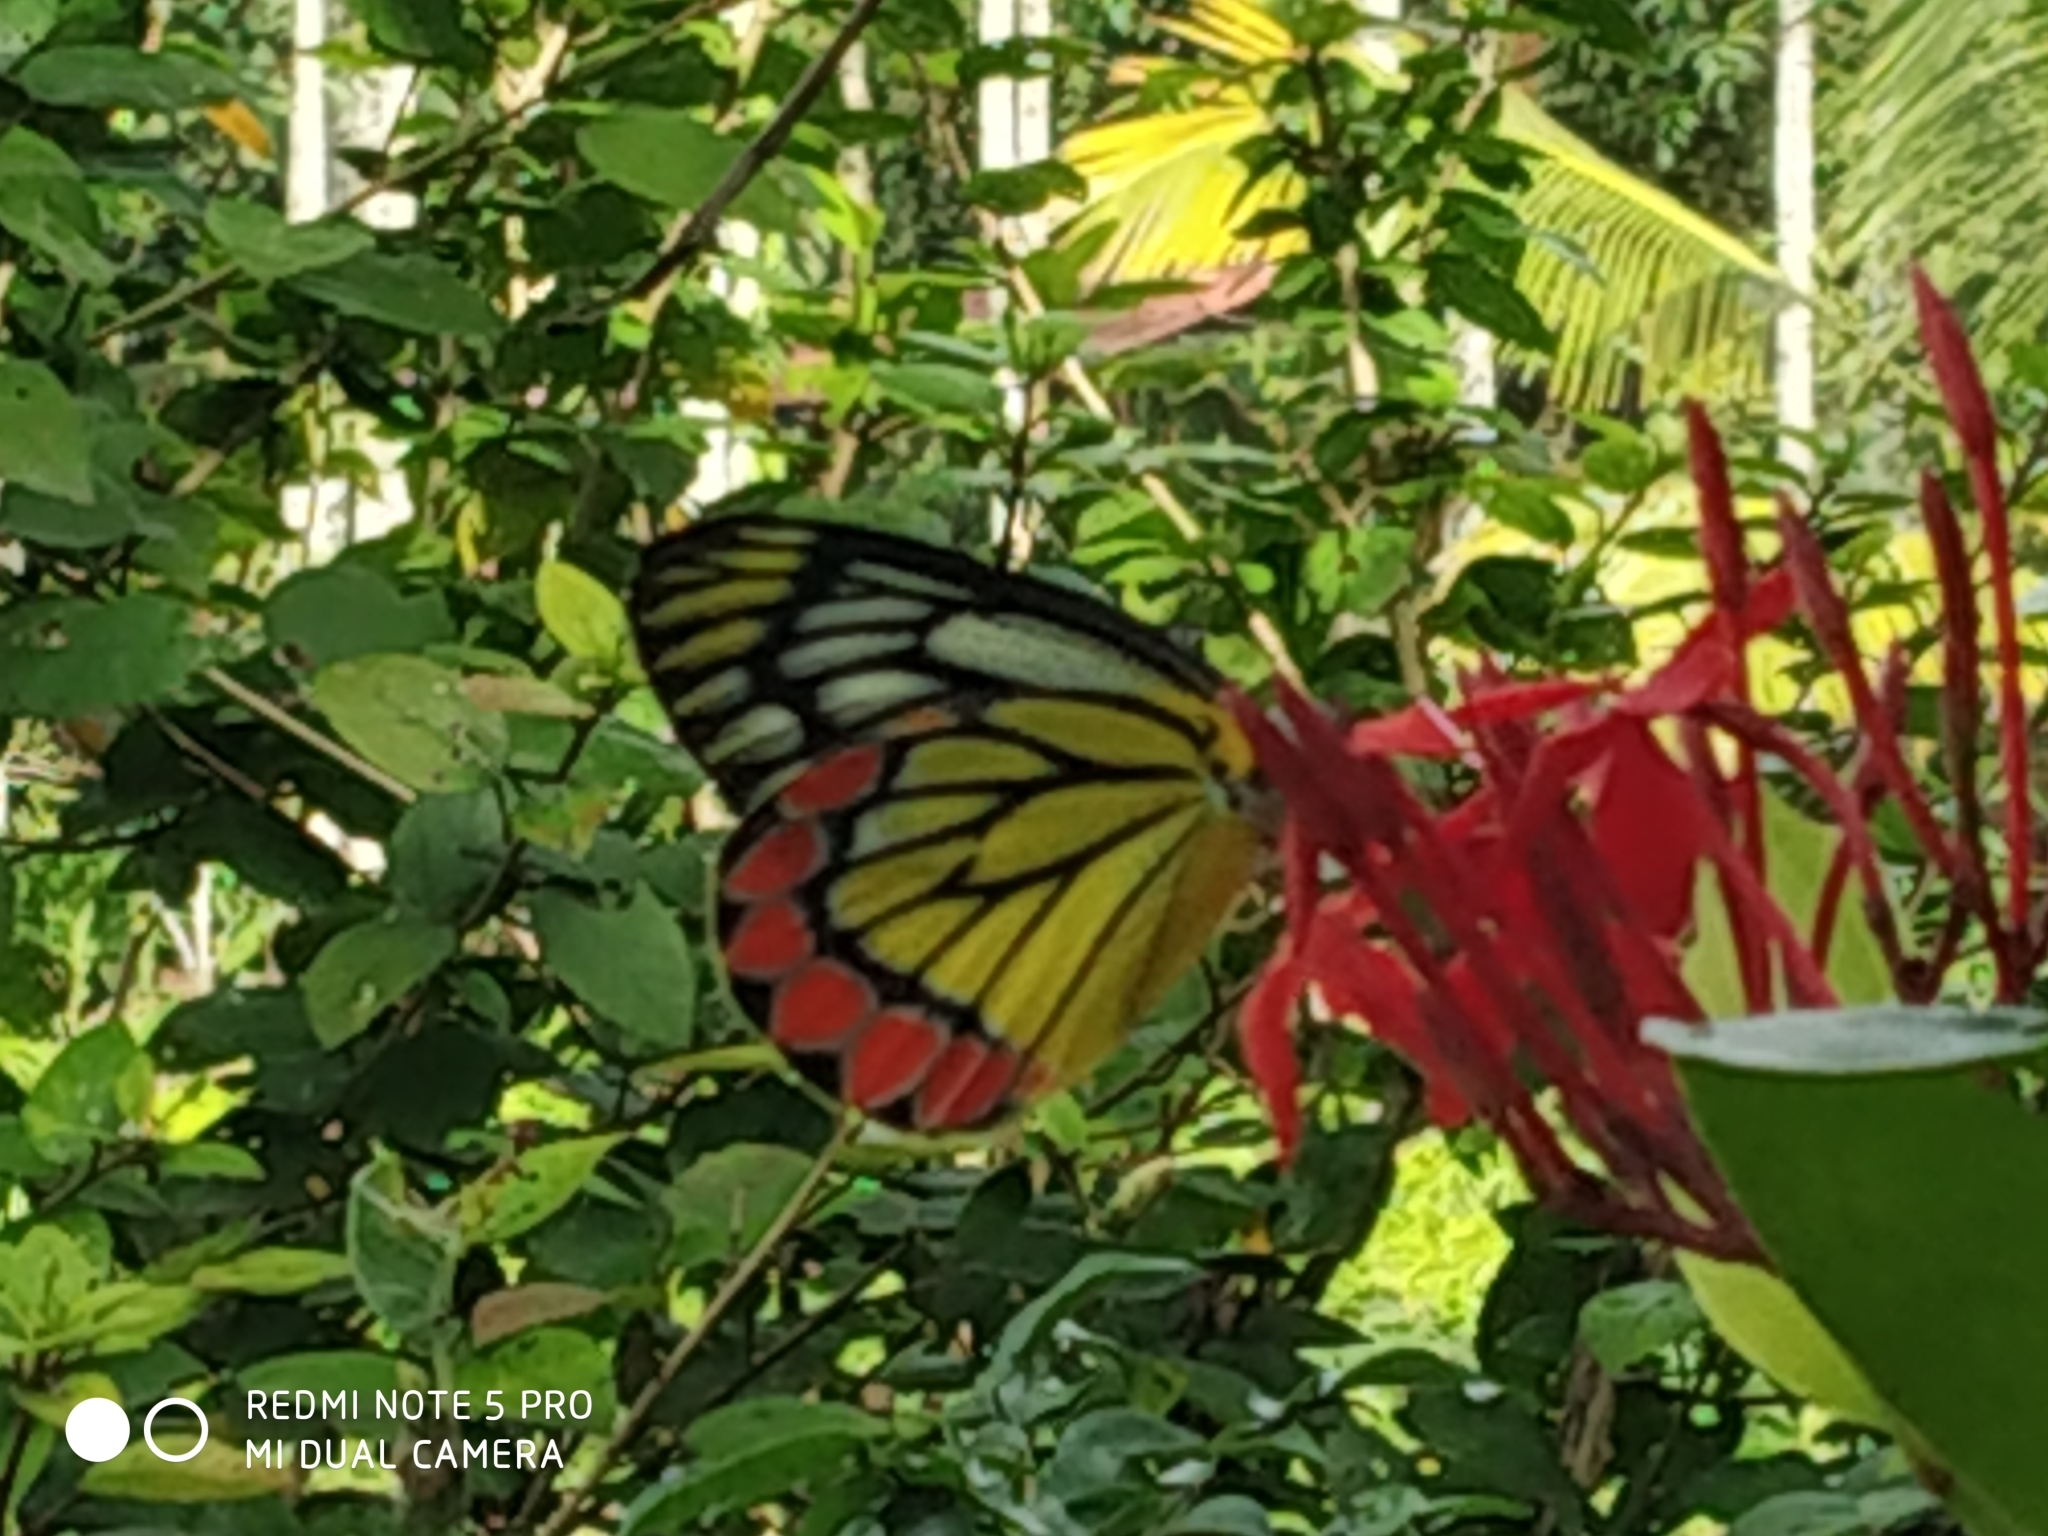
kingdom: Animalia
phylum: Arthropoda
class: Insecta
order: Lepidoptera
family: Pieridae
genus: Delias
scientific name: Delias eucharis
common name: Common jezebel
